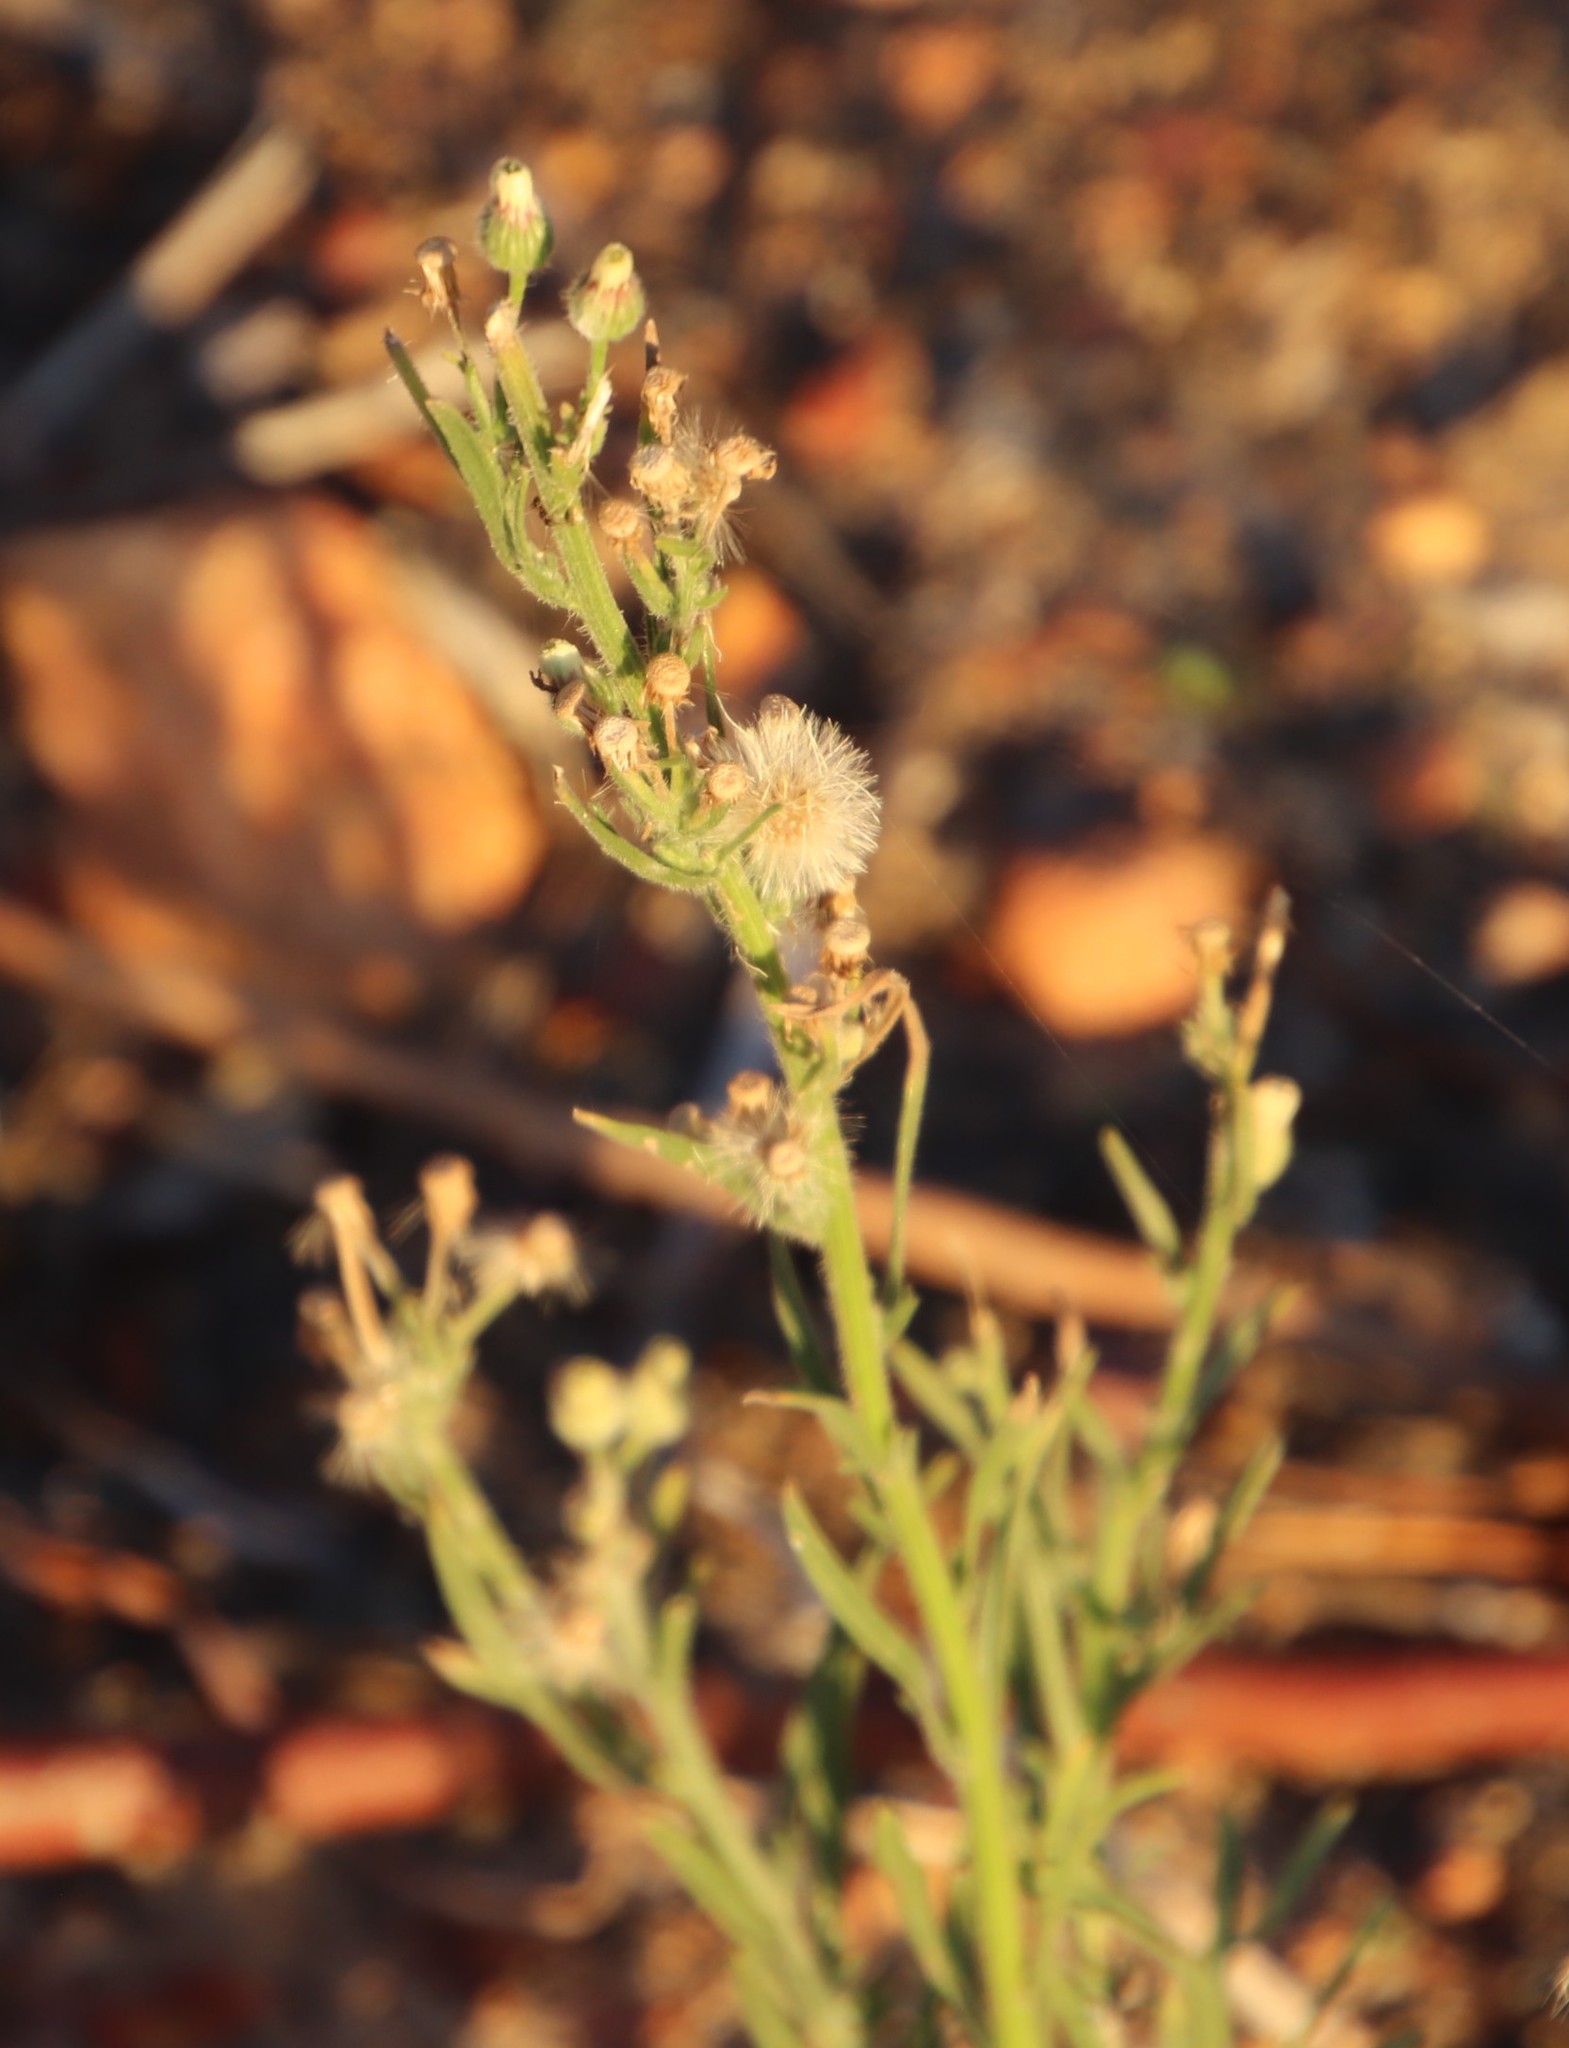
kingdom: Plantae
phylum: Tracheophyta
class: Magnoliopsida
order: Asterales
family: Asteraceae
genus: Erigeron
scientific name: Erigeron bonariensis
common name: Argentine fleabane
